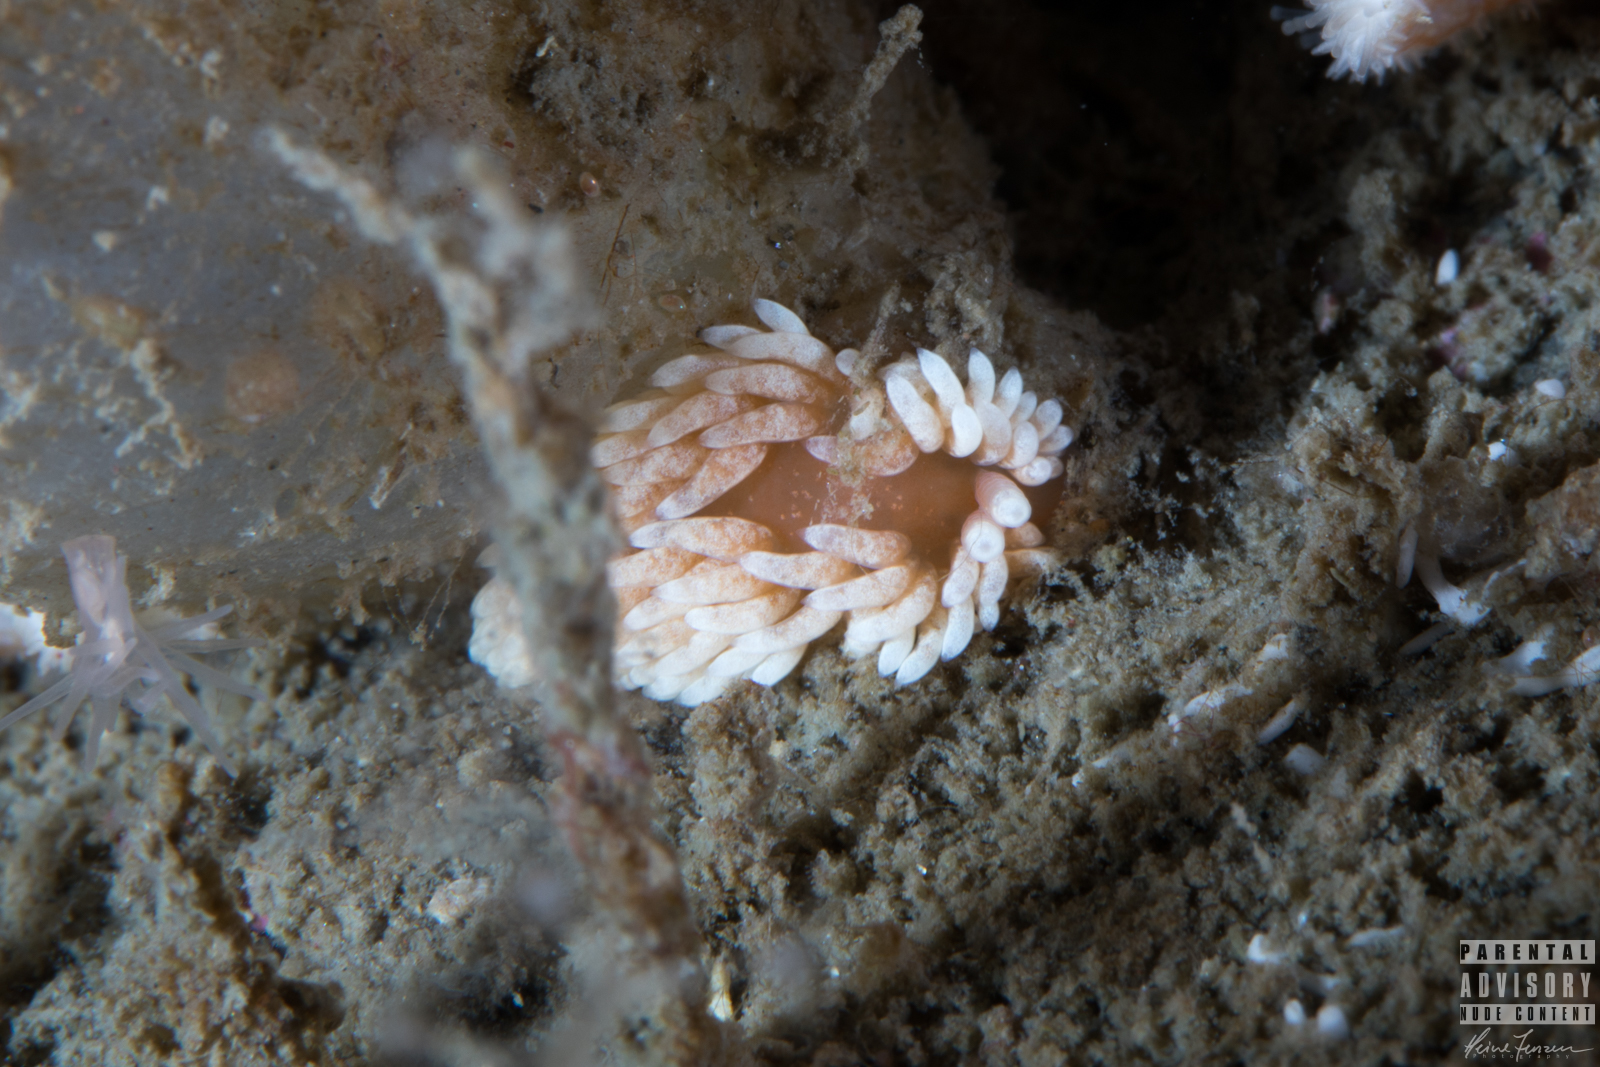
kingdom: Animalia
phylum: Mollusca
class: Gastropoda
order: Nudibranchia
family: Aeolidiidae
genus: Aeolidiella
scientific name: Aeolidiella glauca
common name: Orange-brown aeolid
